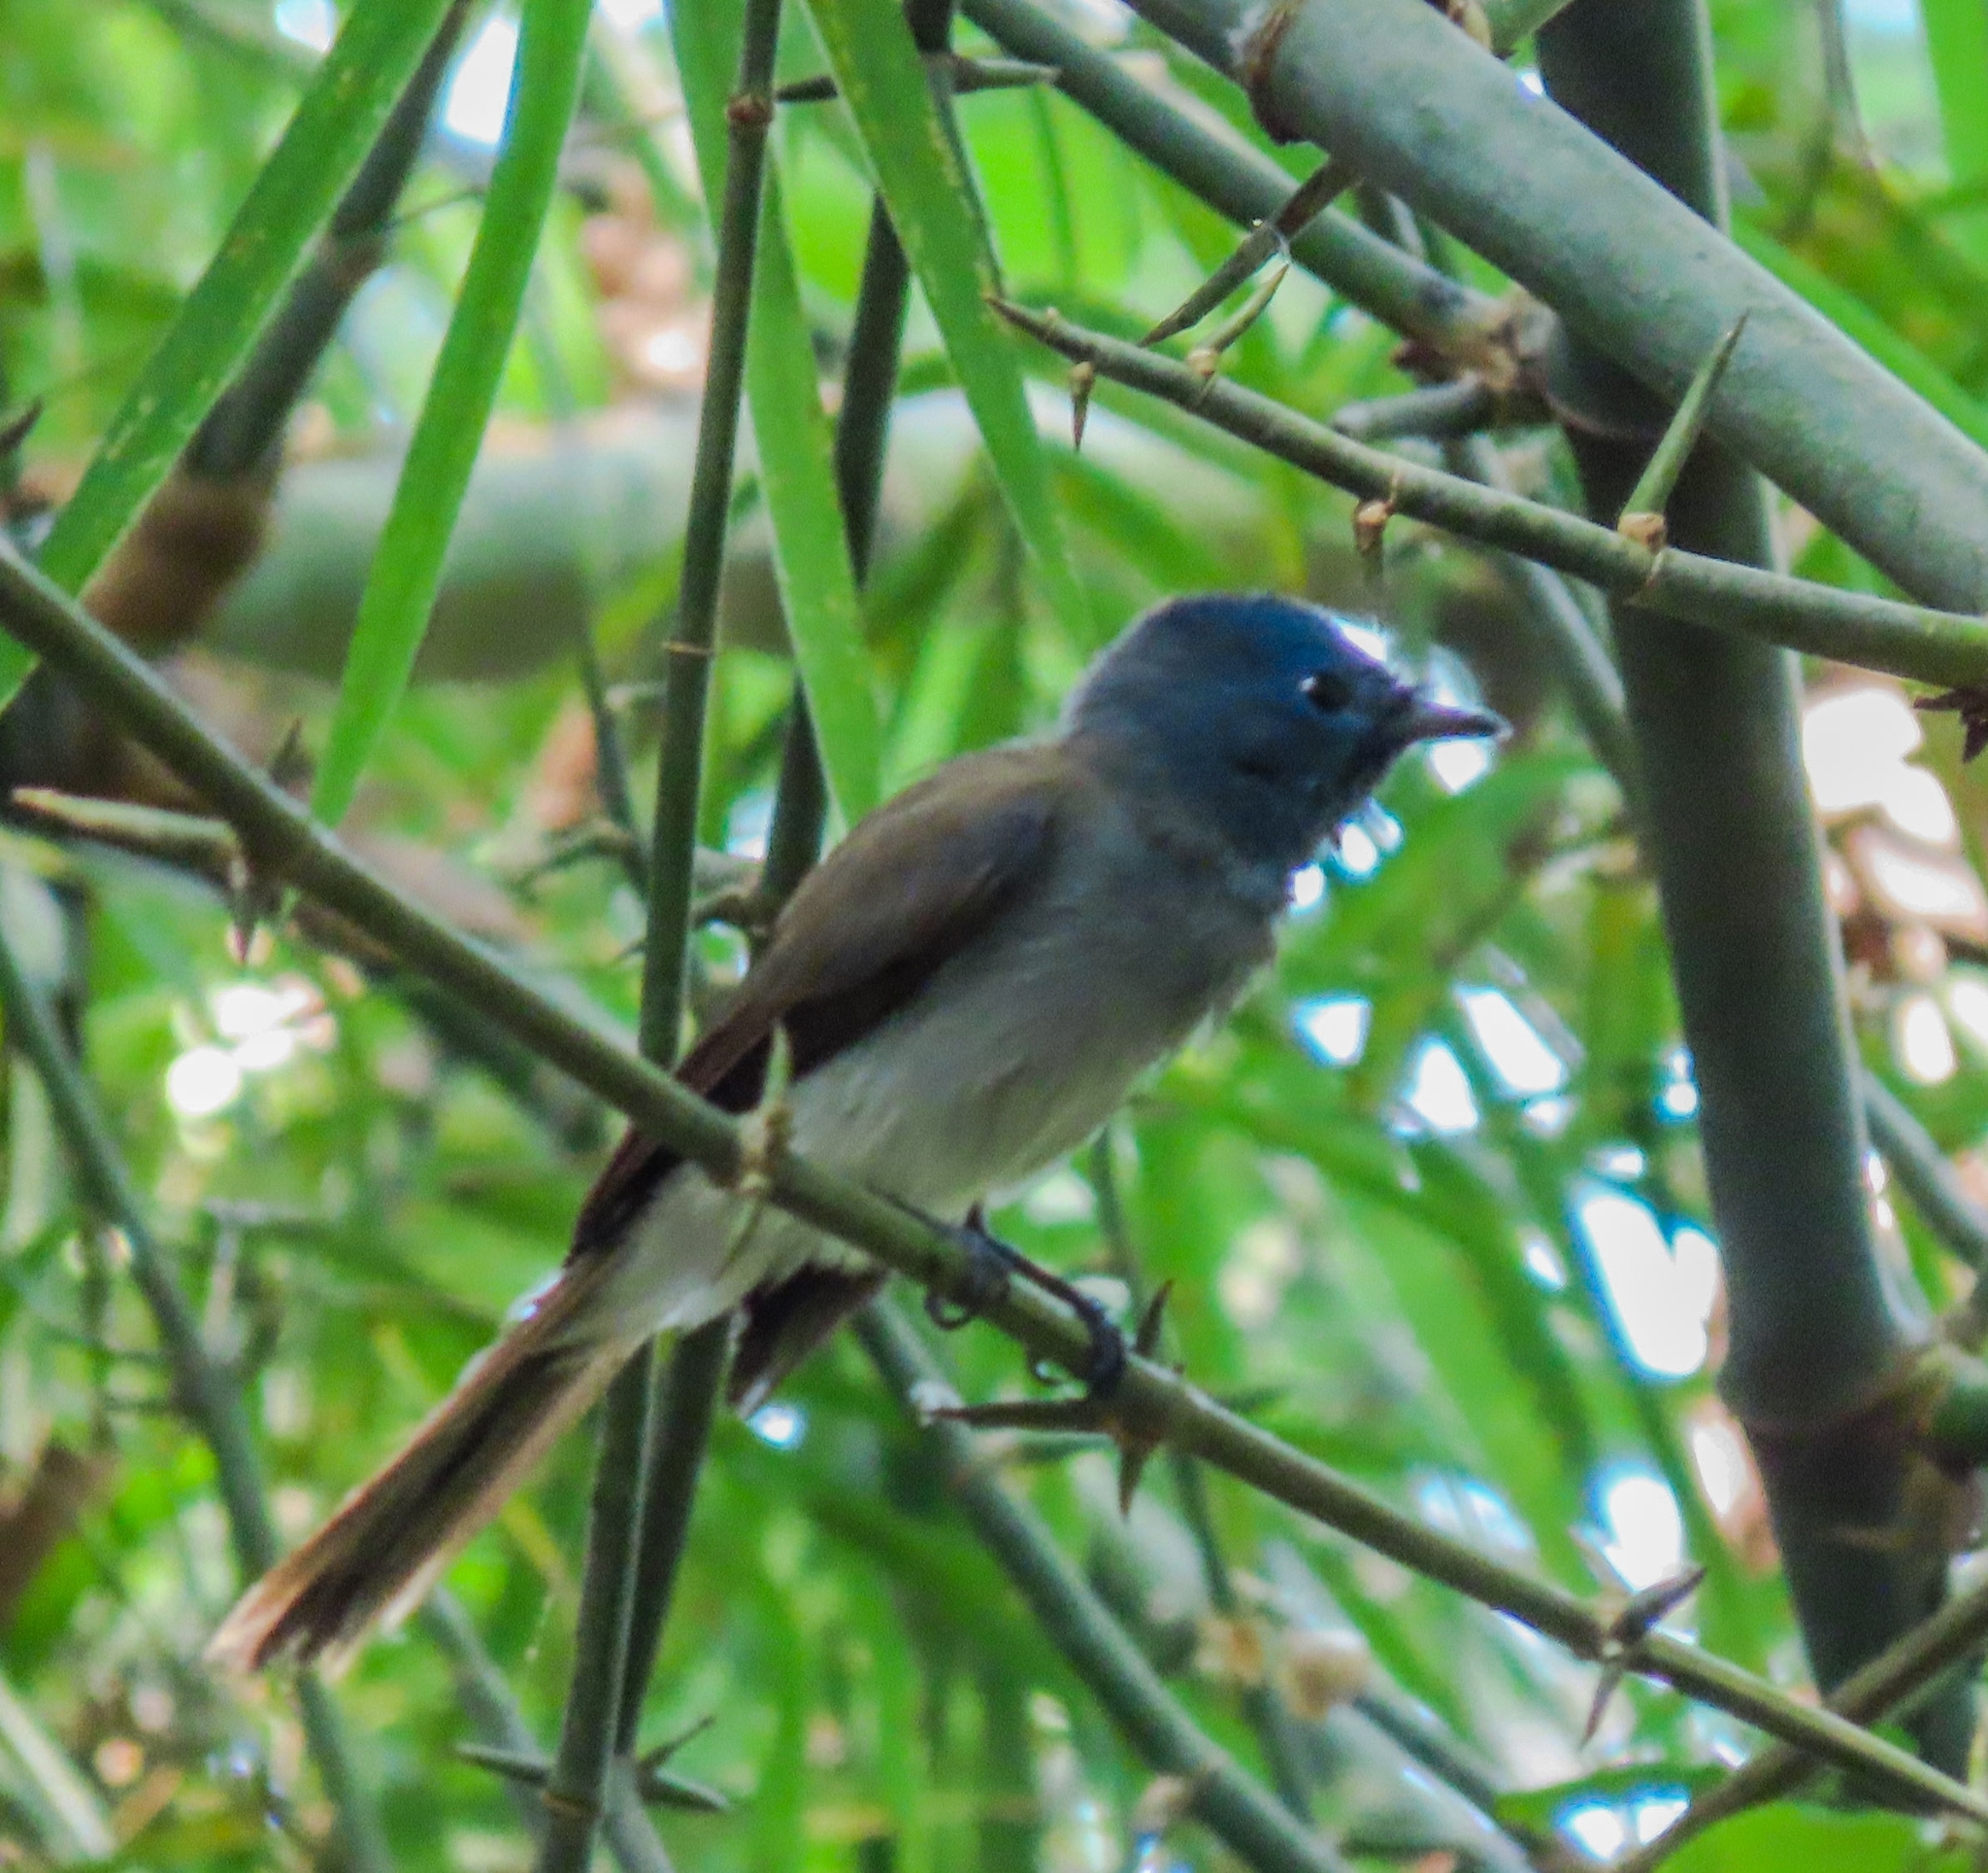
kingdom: Animalia
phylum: Chordata
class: Aves
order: Passeriformes
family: Monarchidae
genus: Hypothymis
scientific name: Hypothymis azurea
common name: Black-naped monarch
